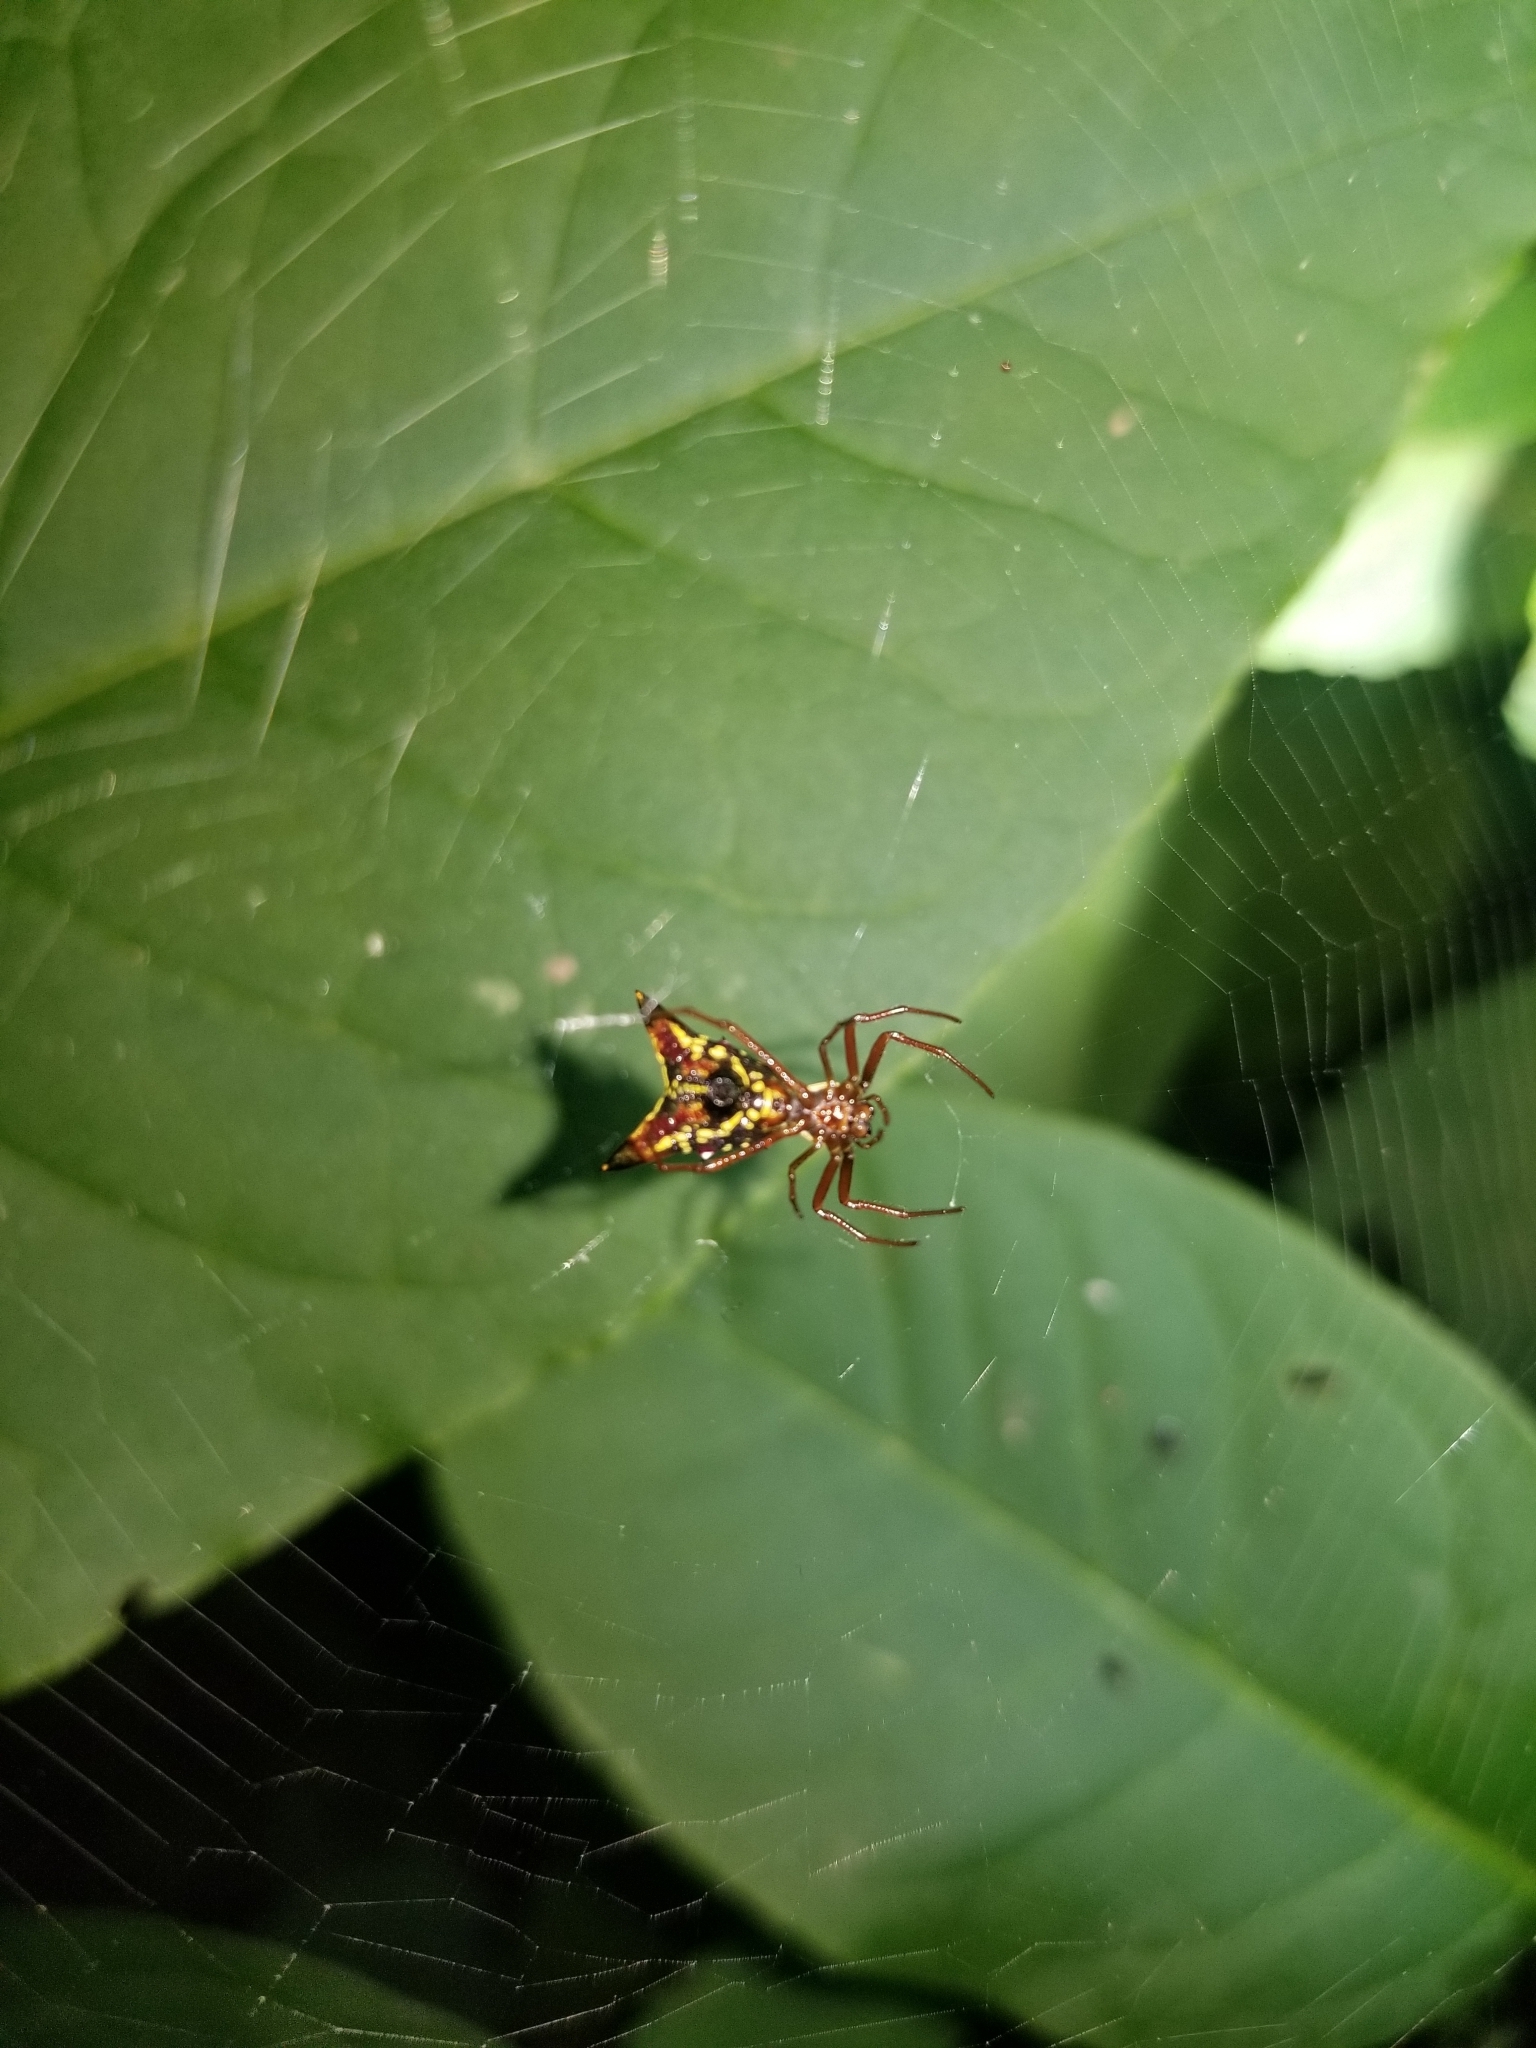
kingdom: Animalia
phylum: Arthropoda
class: Arachnida
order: Araneae
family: Araneidae
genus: Micrathena
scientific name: Micrathena sagittata
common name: Orb weavers
